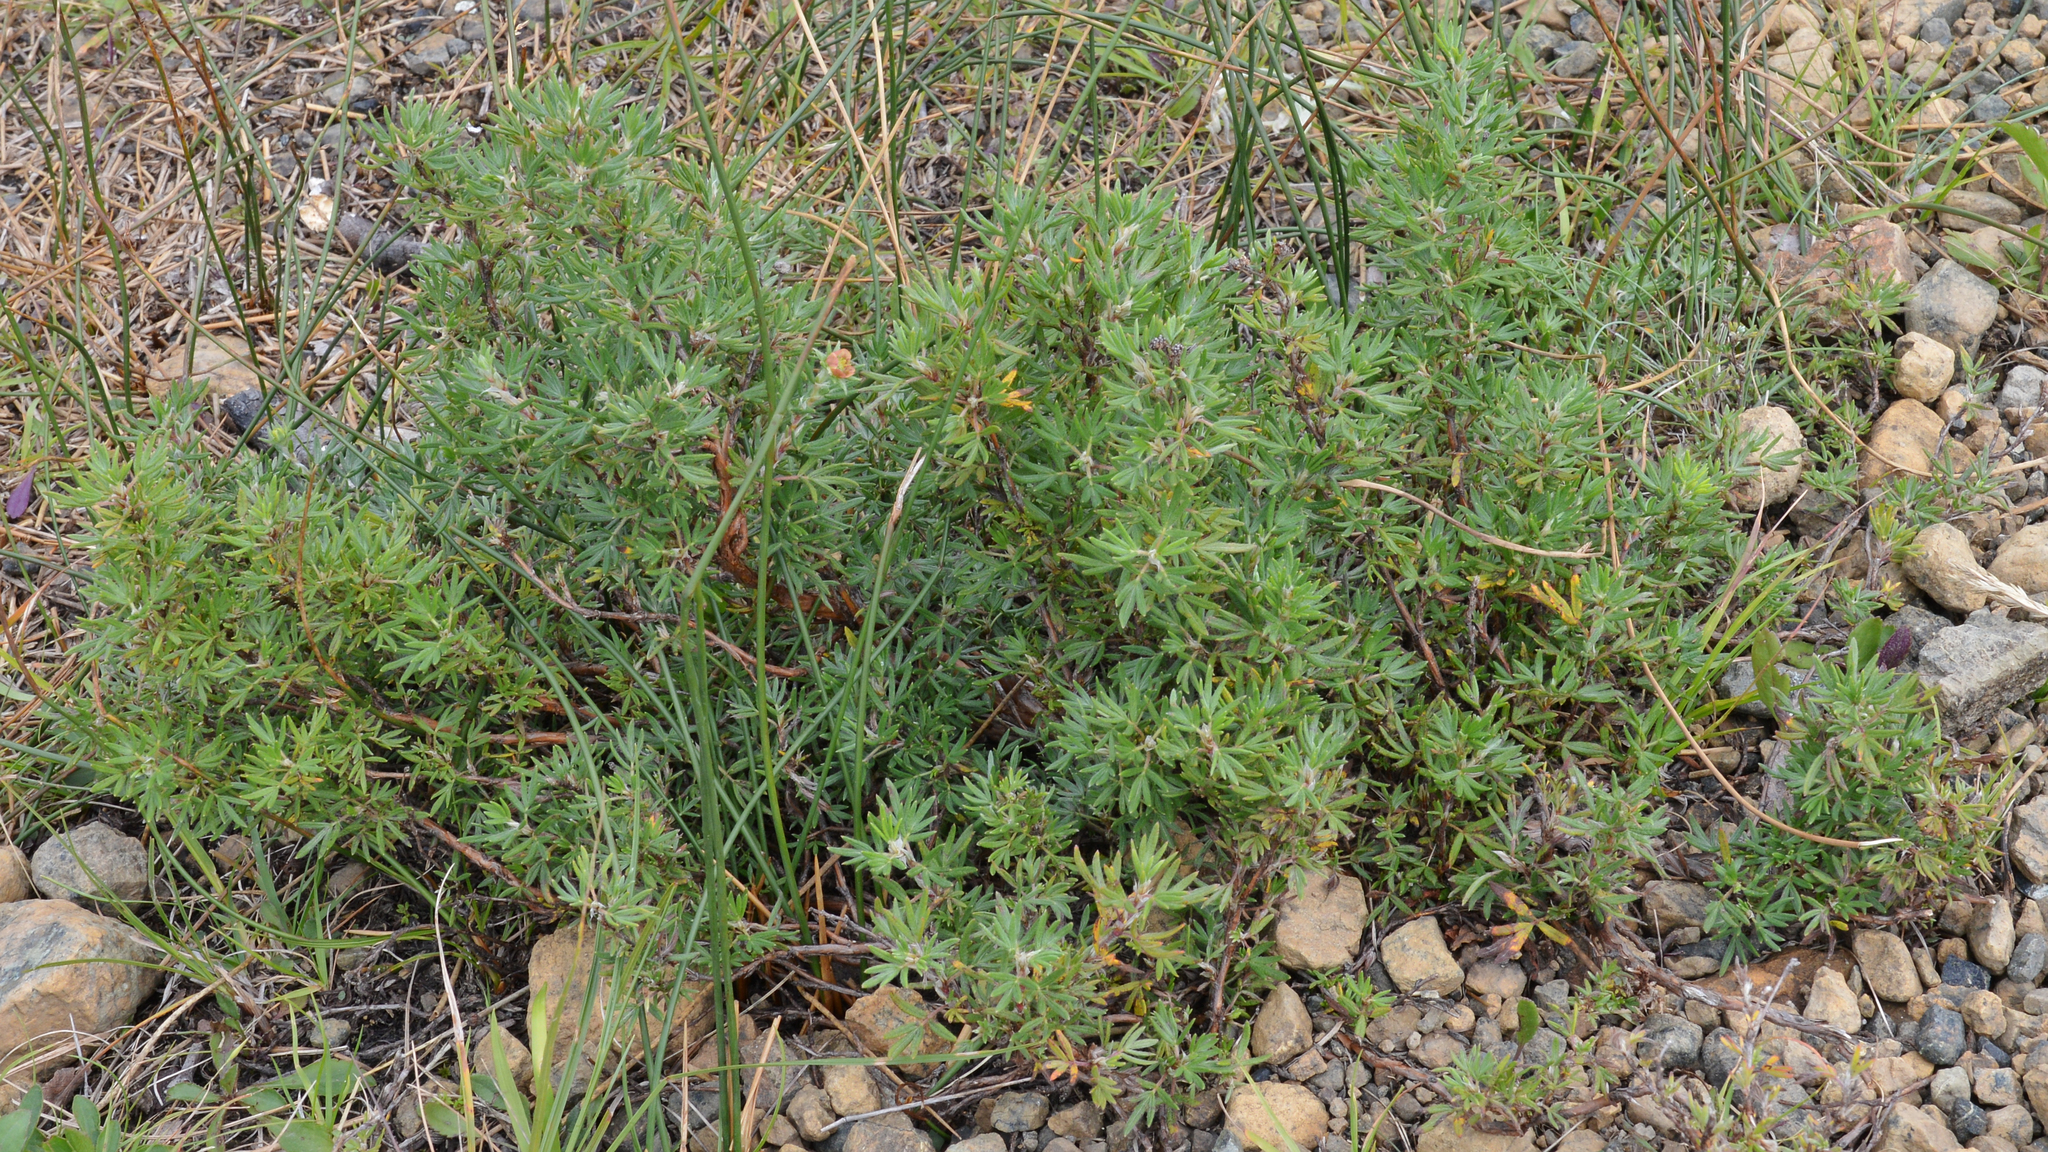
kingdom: Plantae
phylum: Tracheophyta
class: Magnoliopsida
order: Rosales
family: Rosaceae
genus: Dasiphora
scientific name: Dasiphora fruticosa
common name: Shrubby cinquefoil
